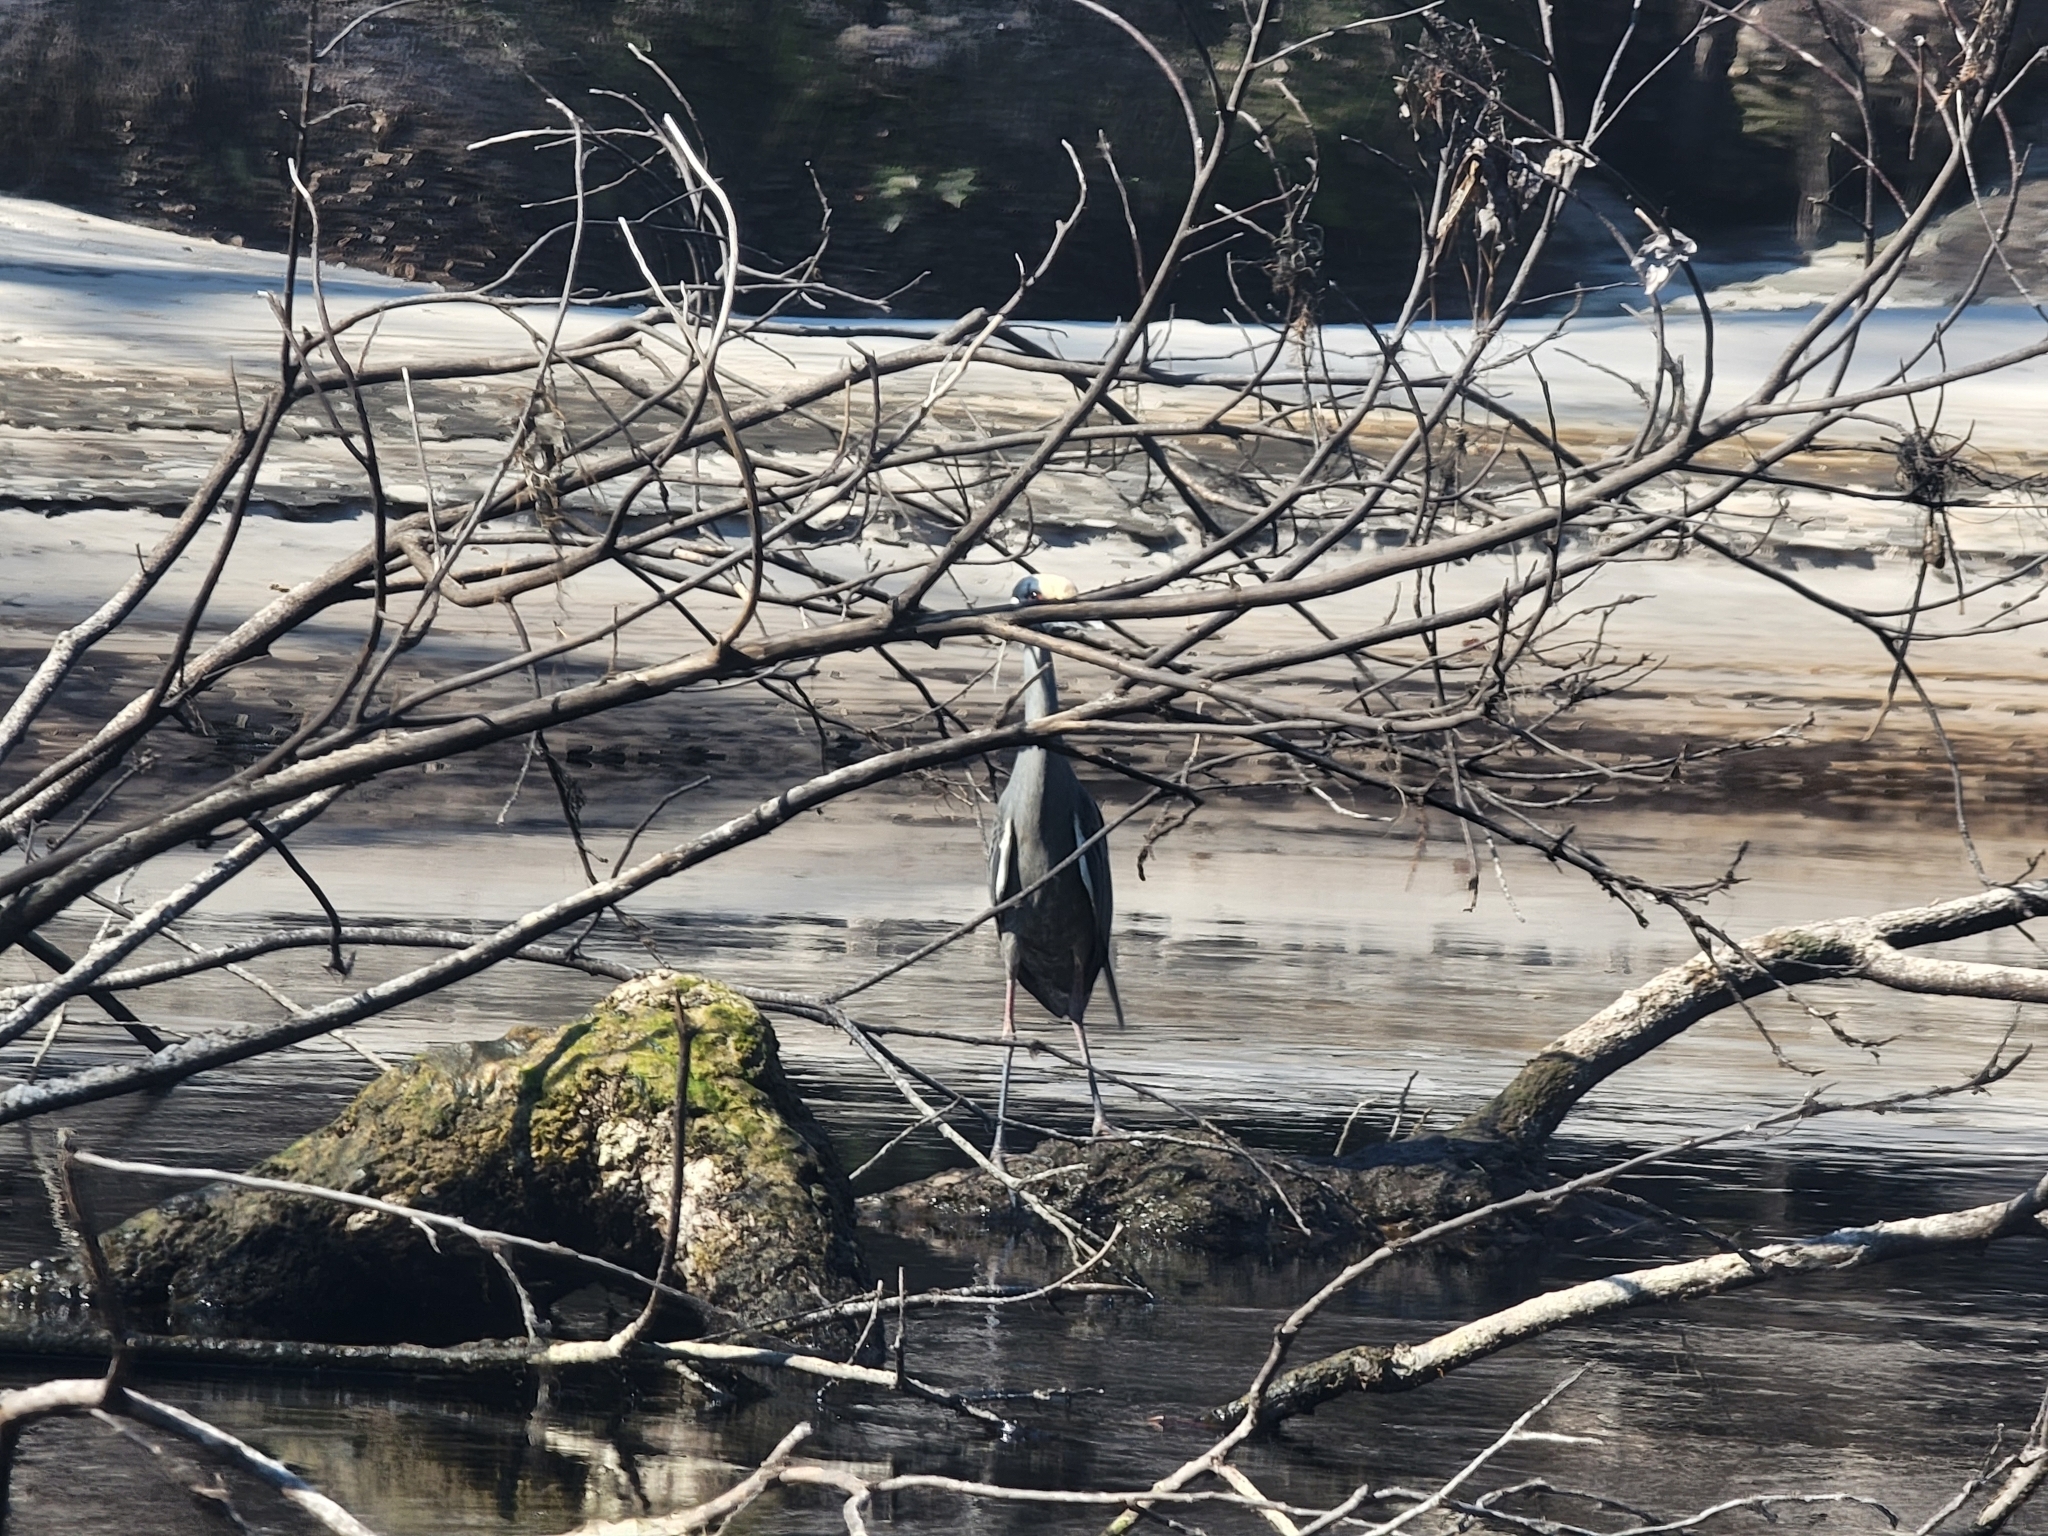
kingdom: Animalia
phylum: Chordata
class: Aves
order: Pelecaniformes
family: Ardeidae
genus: Nyctanassa
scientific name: Nyctanassa violacea
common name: Yellow-crowned night heron
